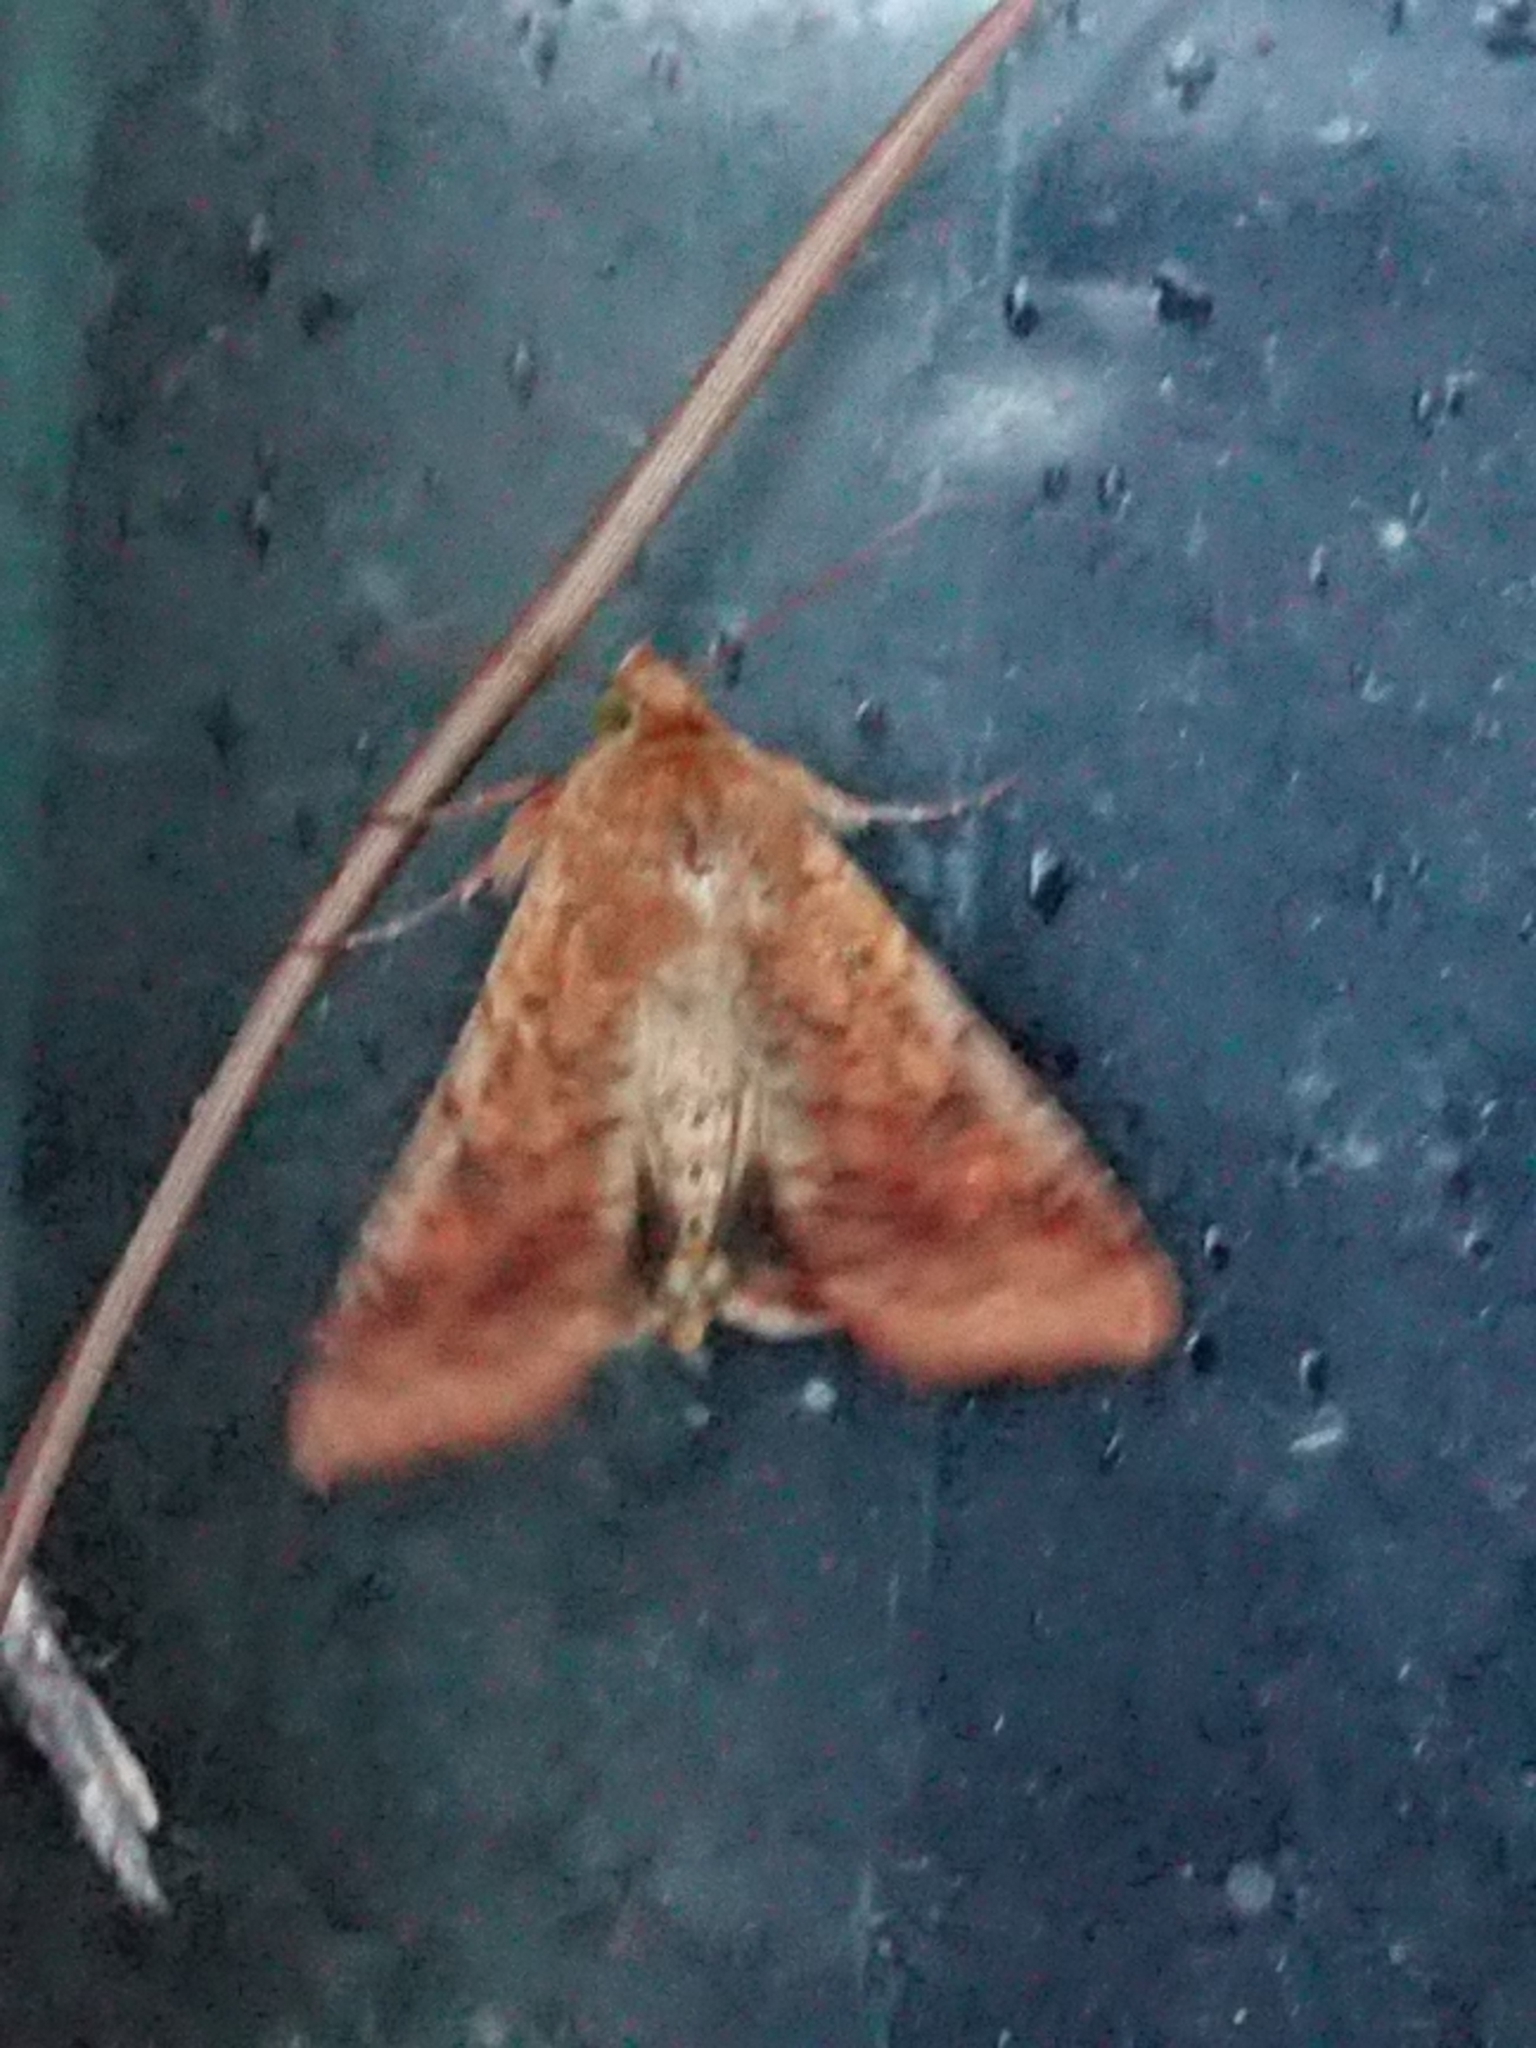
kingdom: Animalia
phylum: Arthropoda
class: Insecta
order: Lepidoptera
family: Noctuidae
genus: Helicoverpa
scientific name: Helicoverpa armigera
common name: Cotton bollworm
